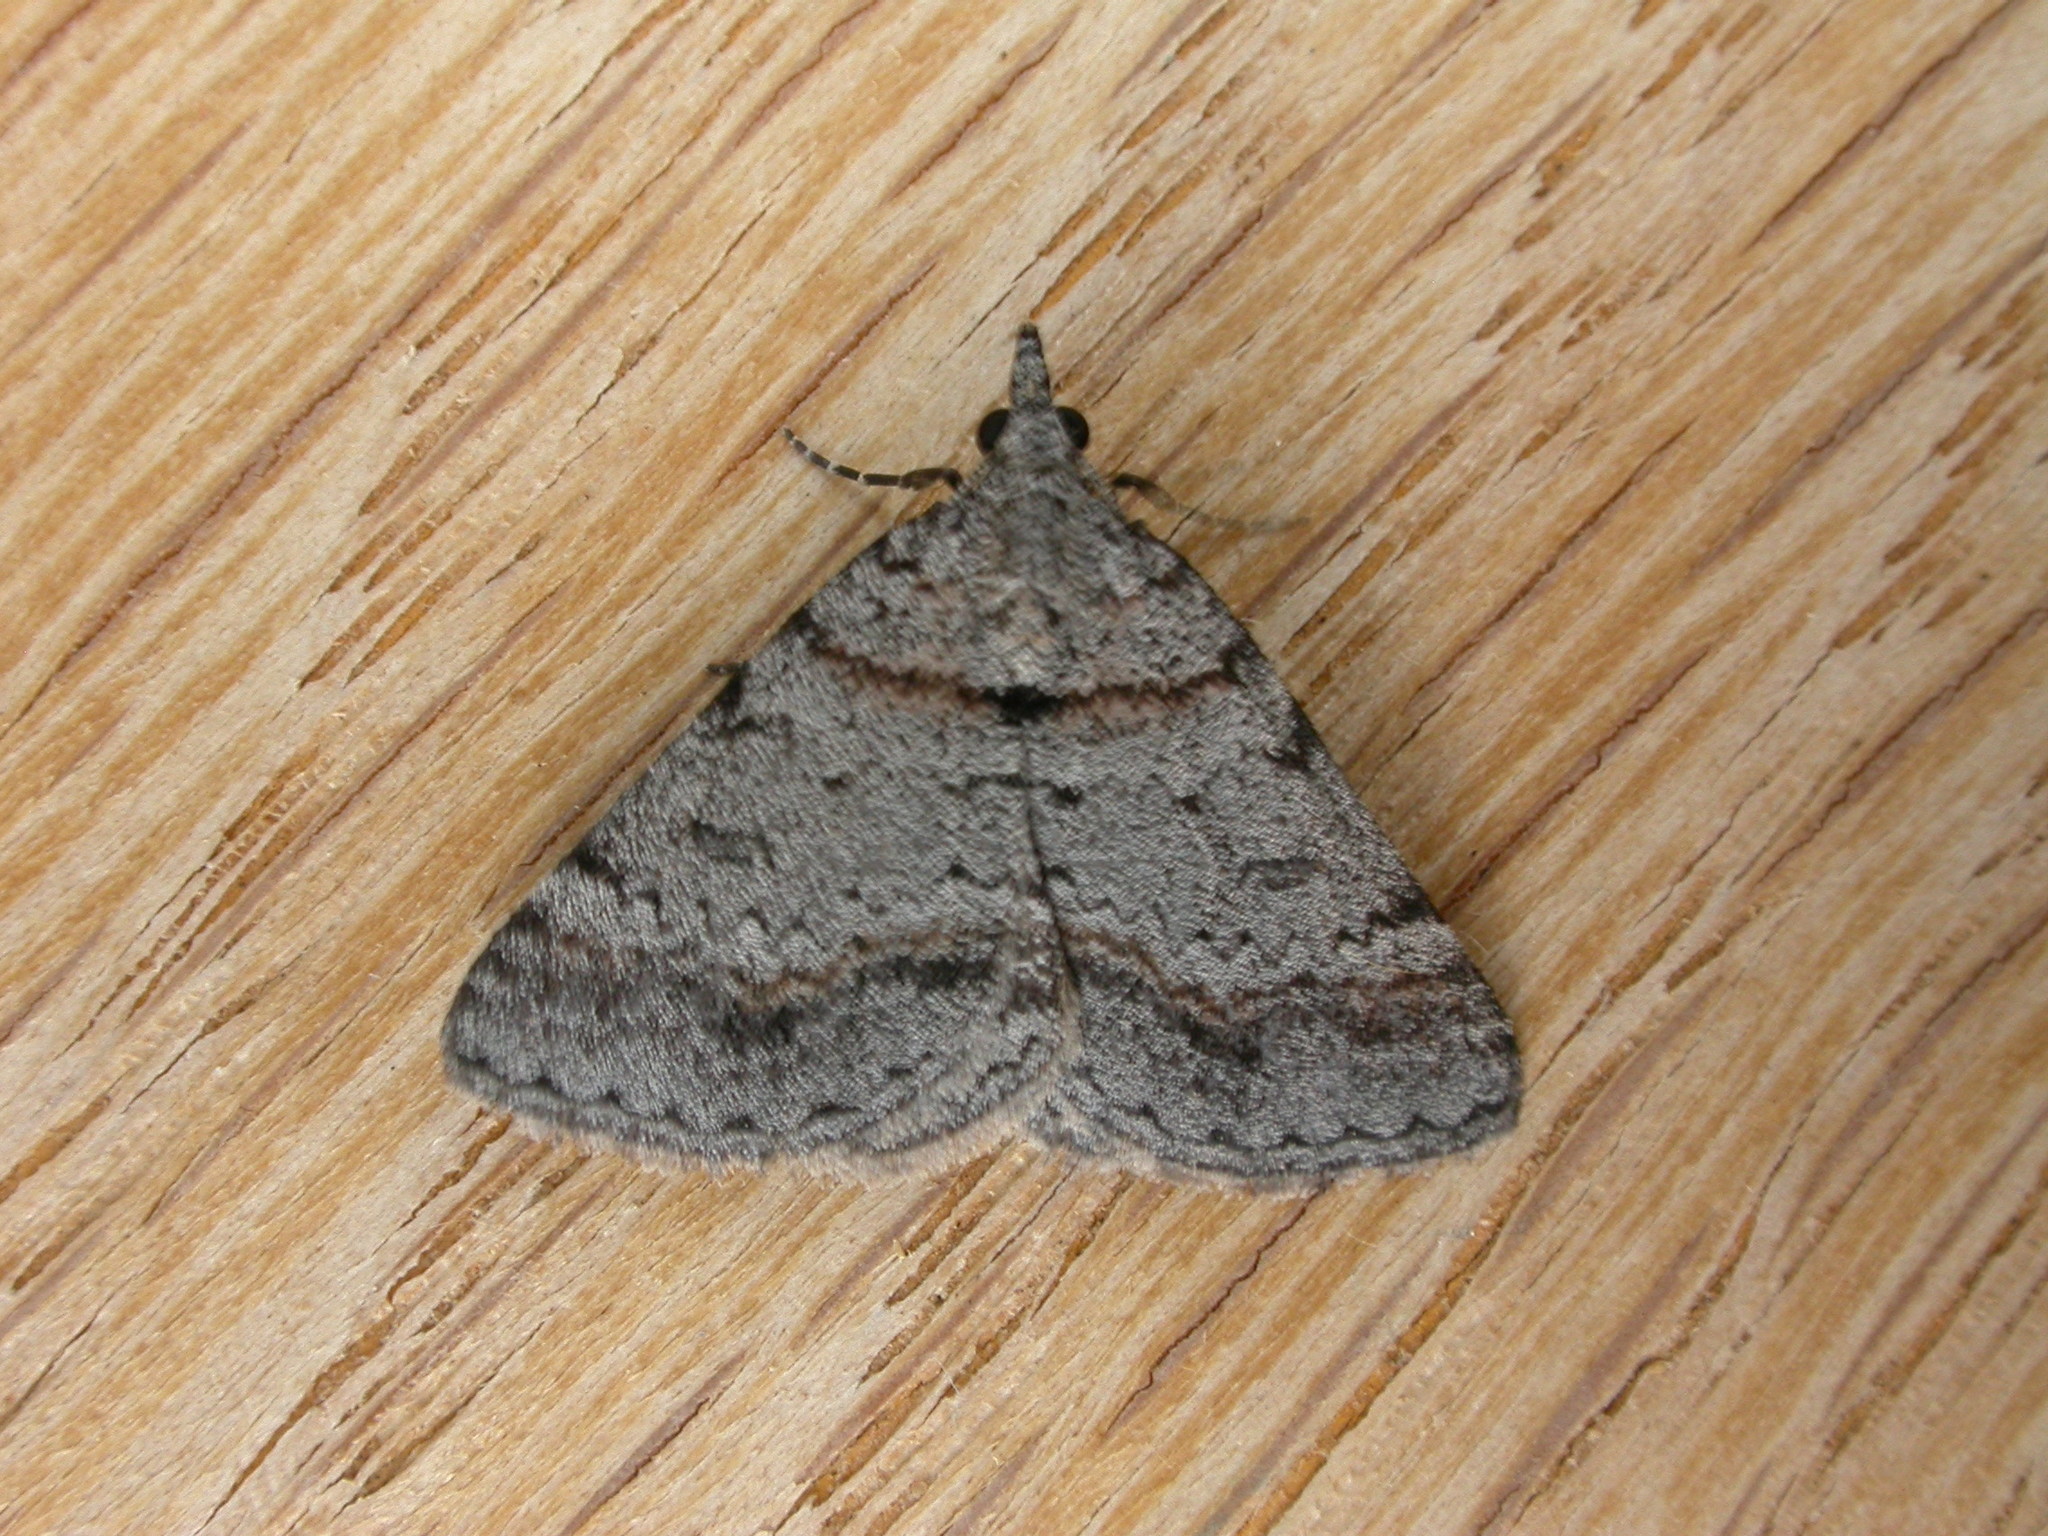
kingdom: Animalia
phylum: Arthropoda
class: Insecta
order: Lepidoptera
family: Geometridae
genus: Dichromodes
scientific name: Dichromodes obtusata
